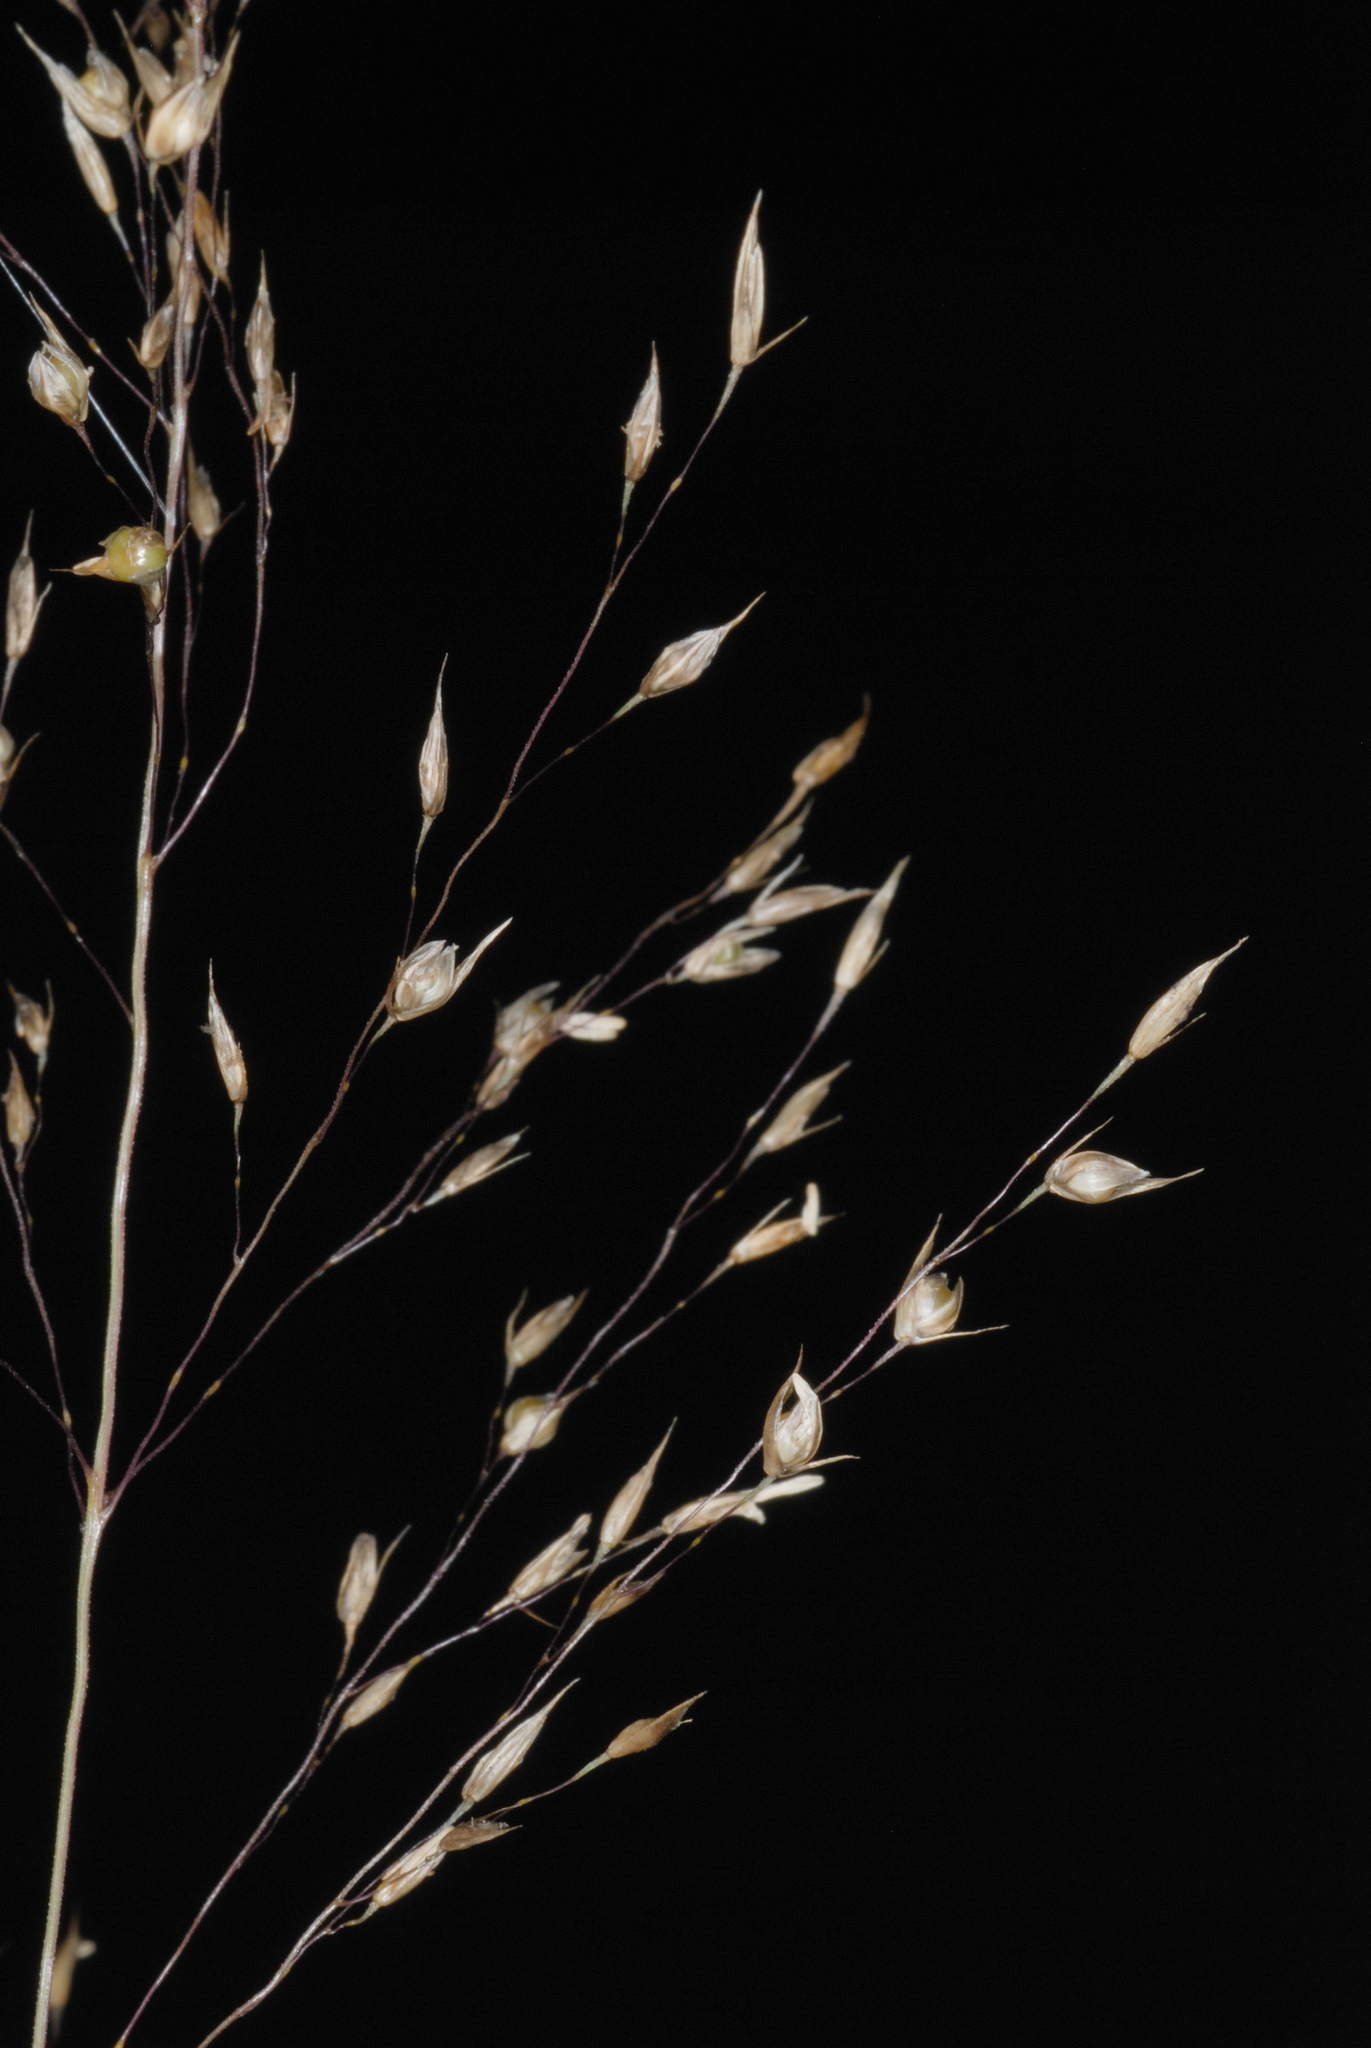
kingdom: Plantae
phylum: Tracheophyta
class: Liliopsida
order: Poales
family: Poaceae
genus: Sporobolus
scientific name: Sporobolus heterolepis
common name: Prairie dropseed
